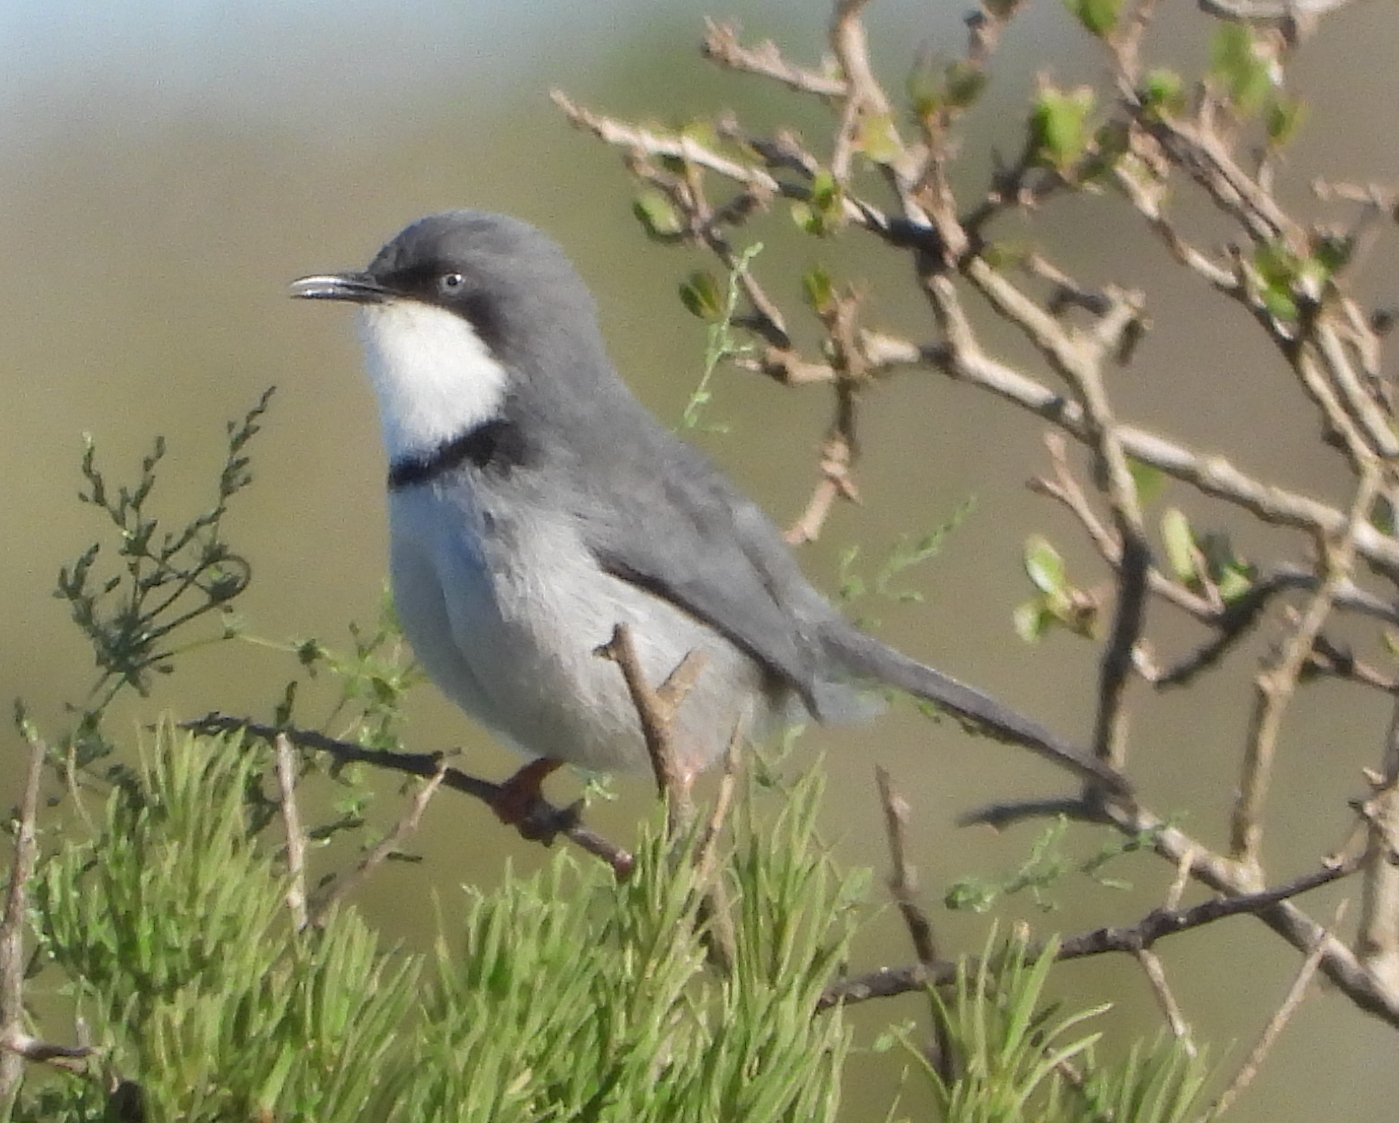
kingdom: Animalia
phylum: Chordata
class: Aves
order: Passeriformes
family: Cisticolidae
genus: Apalis
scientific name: Apalis thoracica
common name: Bar-throated apalis
